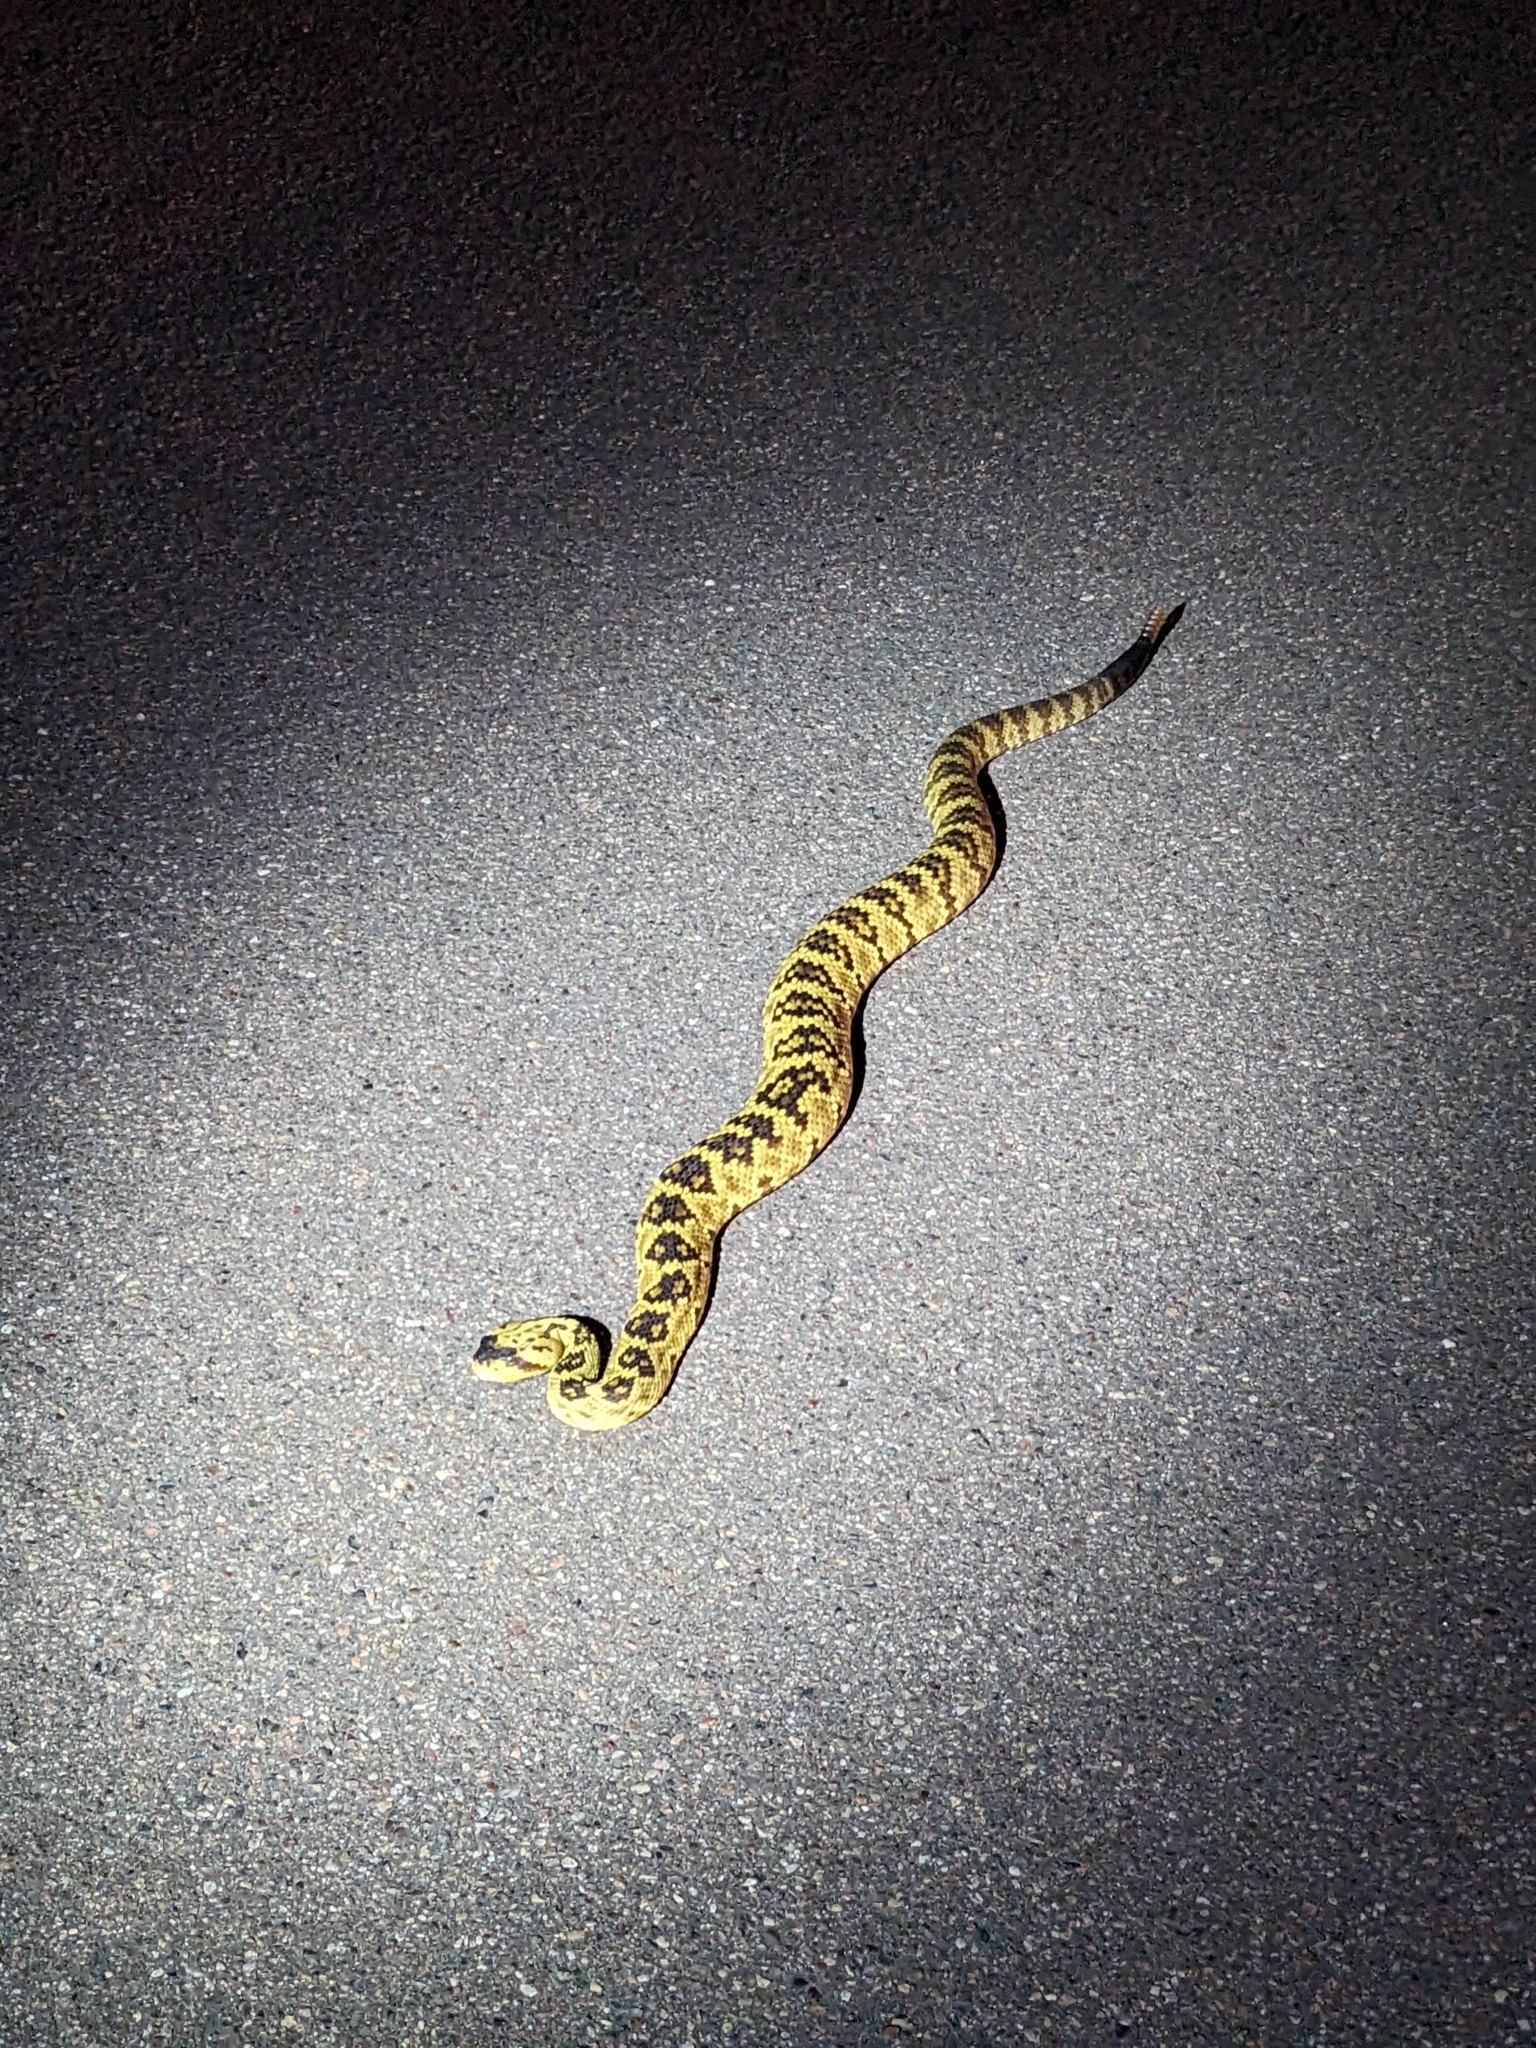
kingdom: Animalia
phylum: Chordata
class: Squamata
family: Viperidae
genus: Crotalus
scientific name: Crotalus molossus
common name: Black tailed rattlesnake
